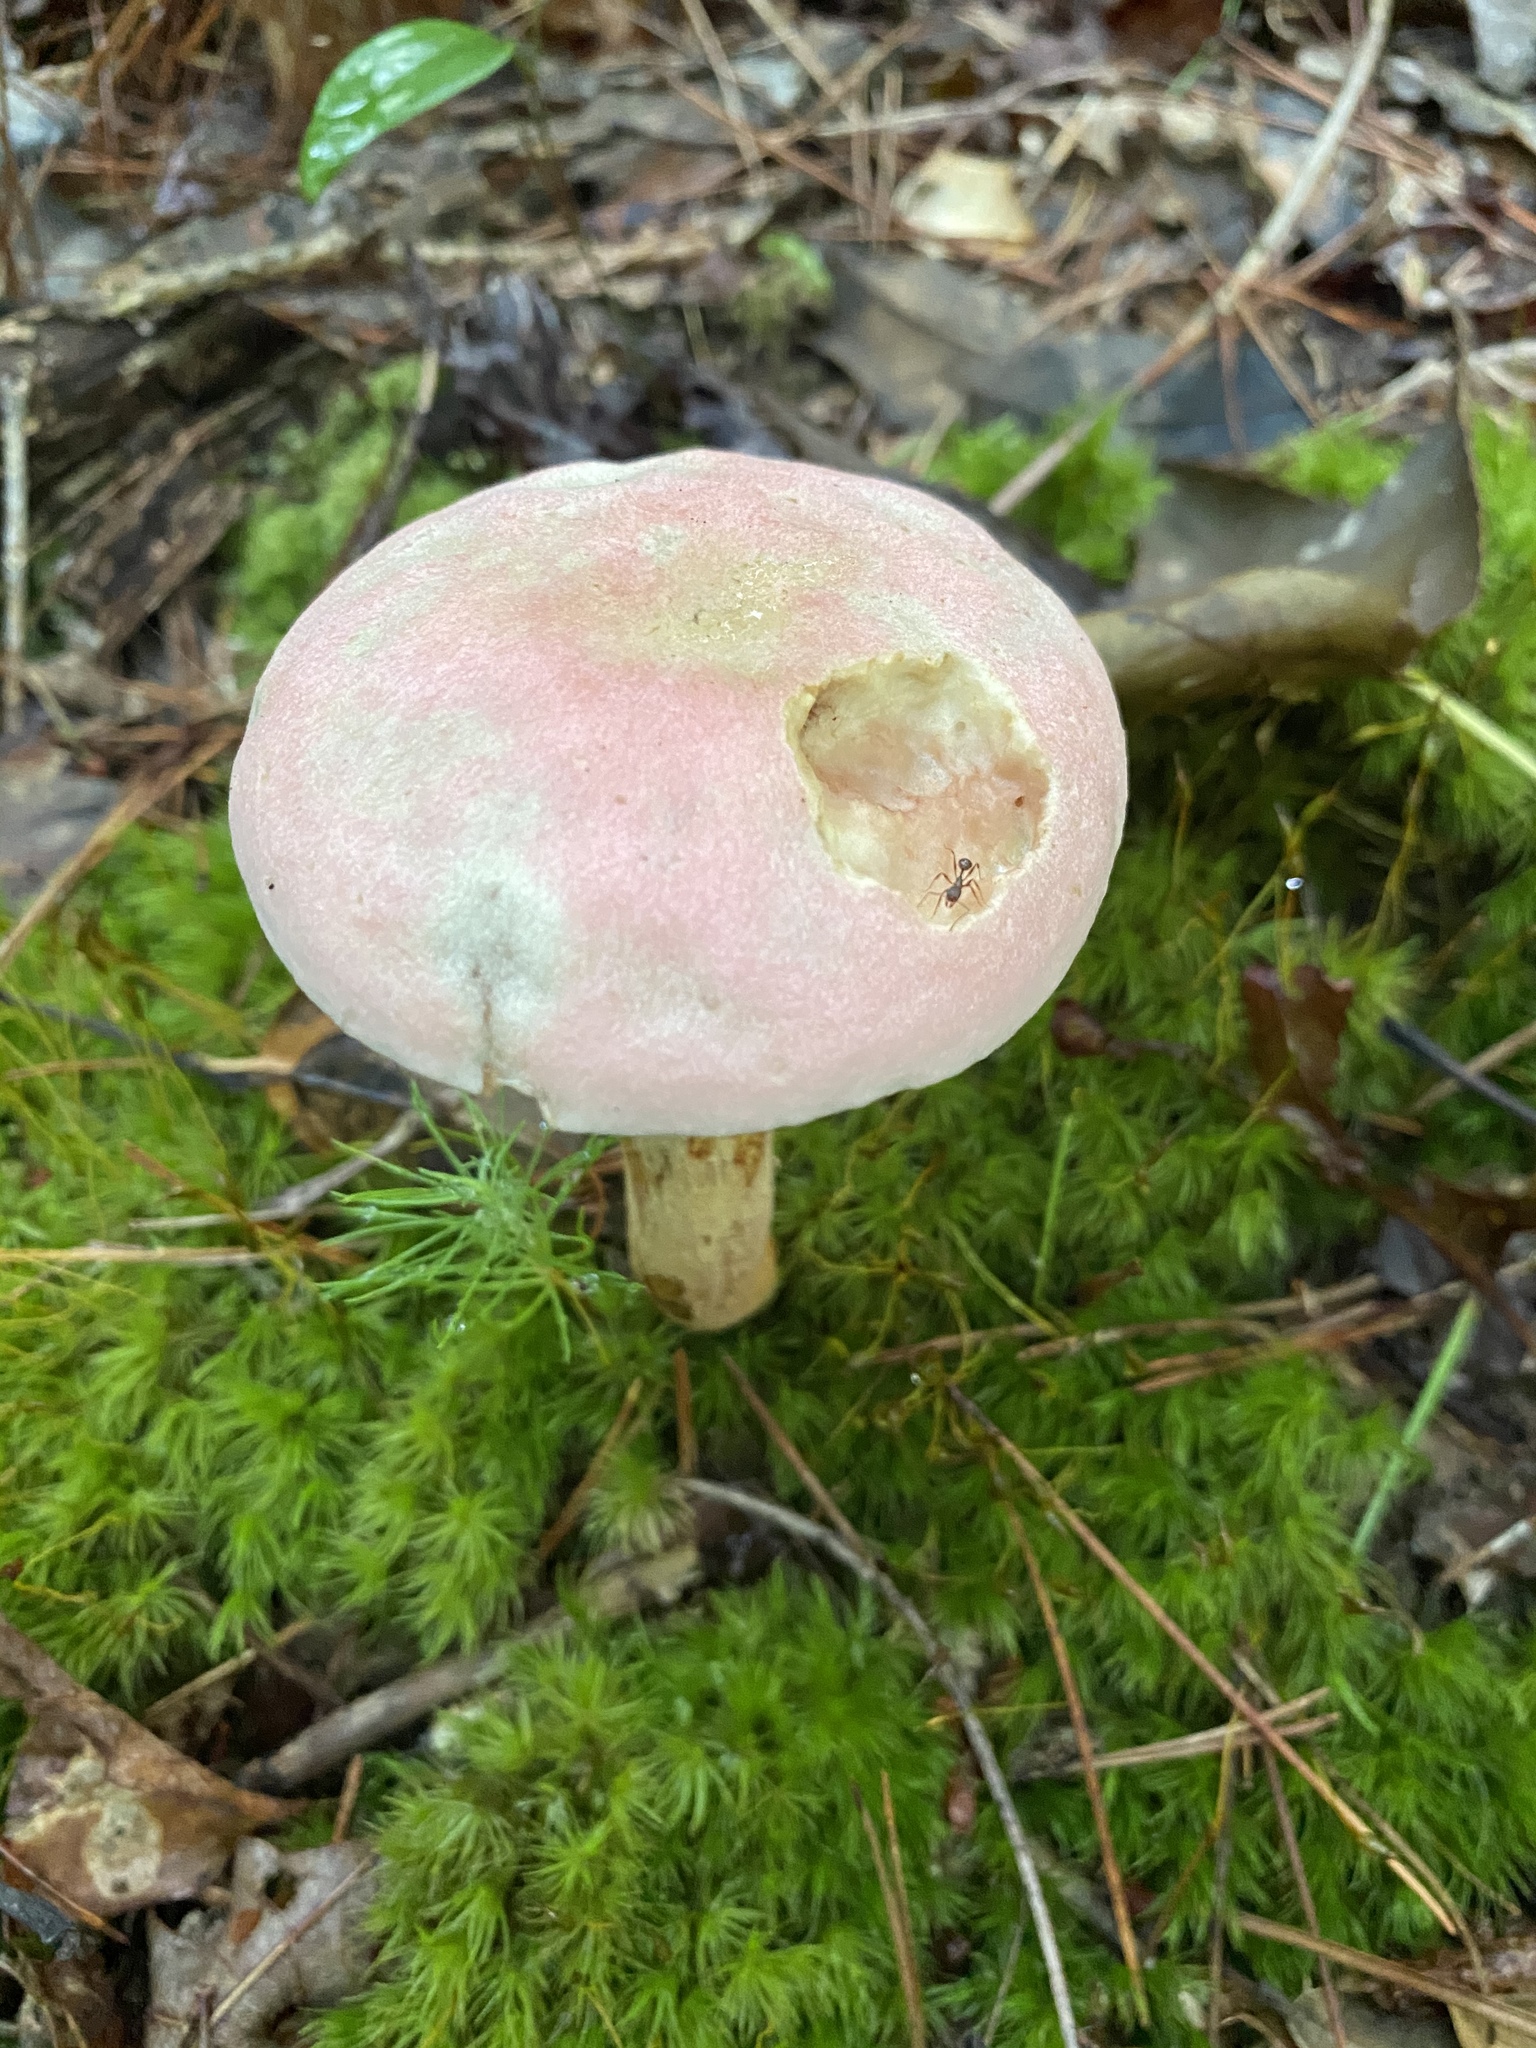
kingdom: Fungi
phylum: Basidiomycota
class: Agaricomycetes
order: Boletales
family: Boletaceae
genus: Harrya
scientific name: Harrya chromipes
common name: Chrome-footed bolete
